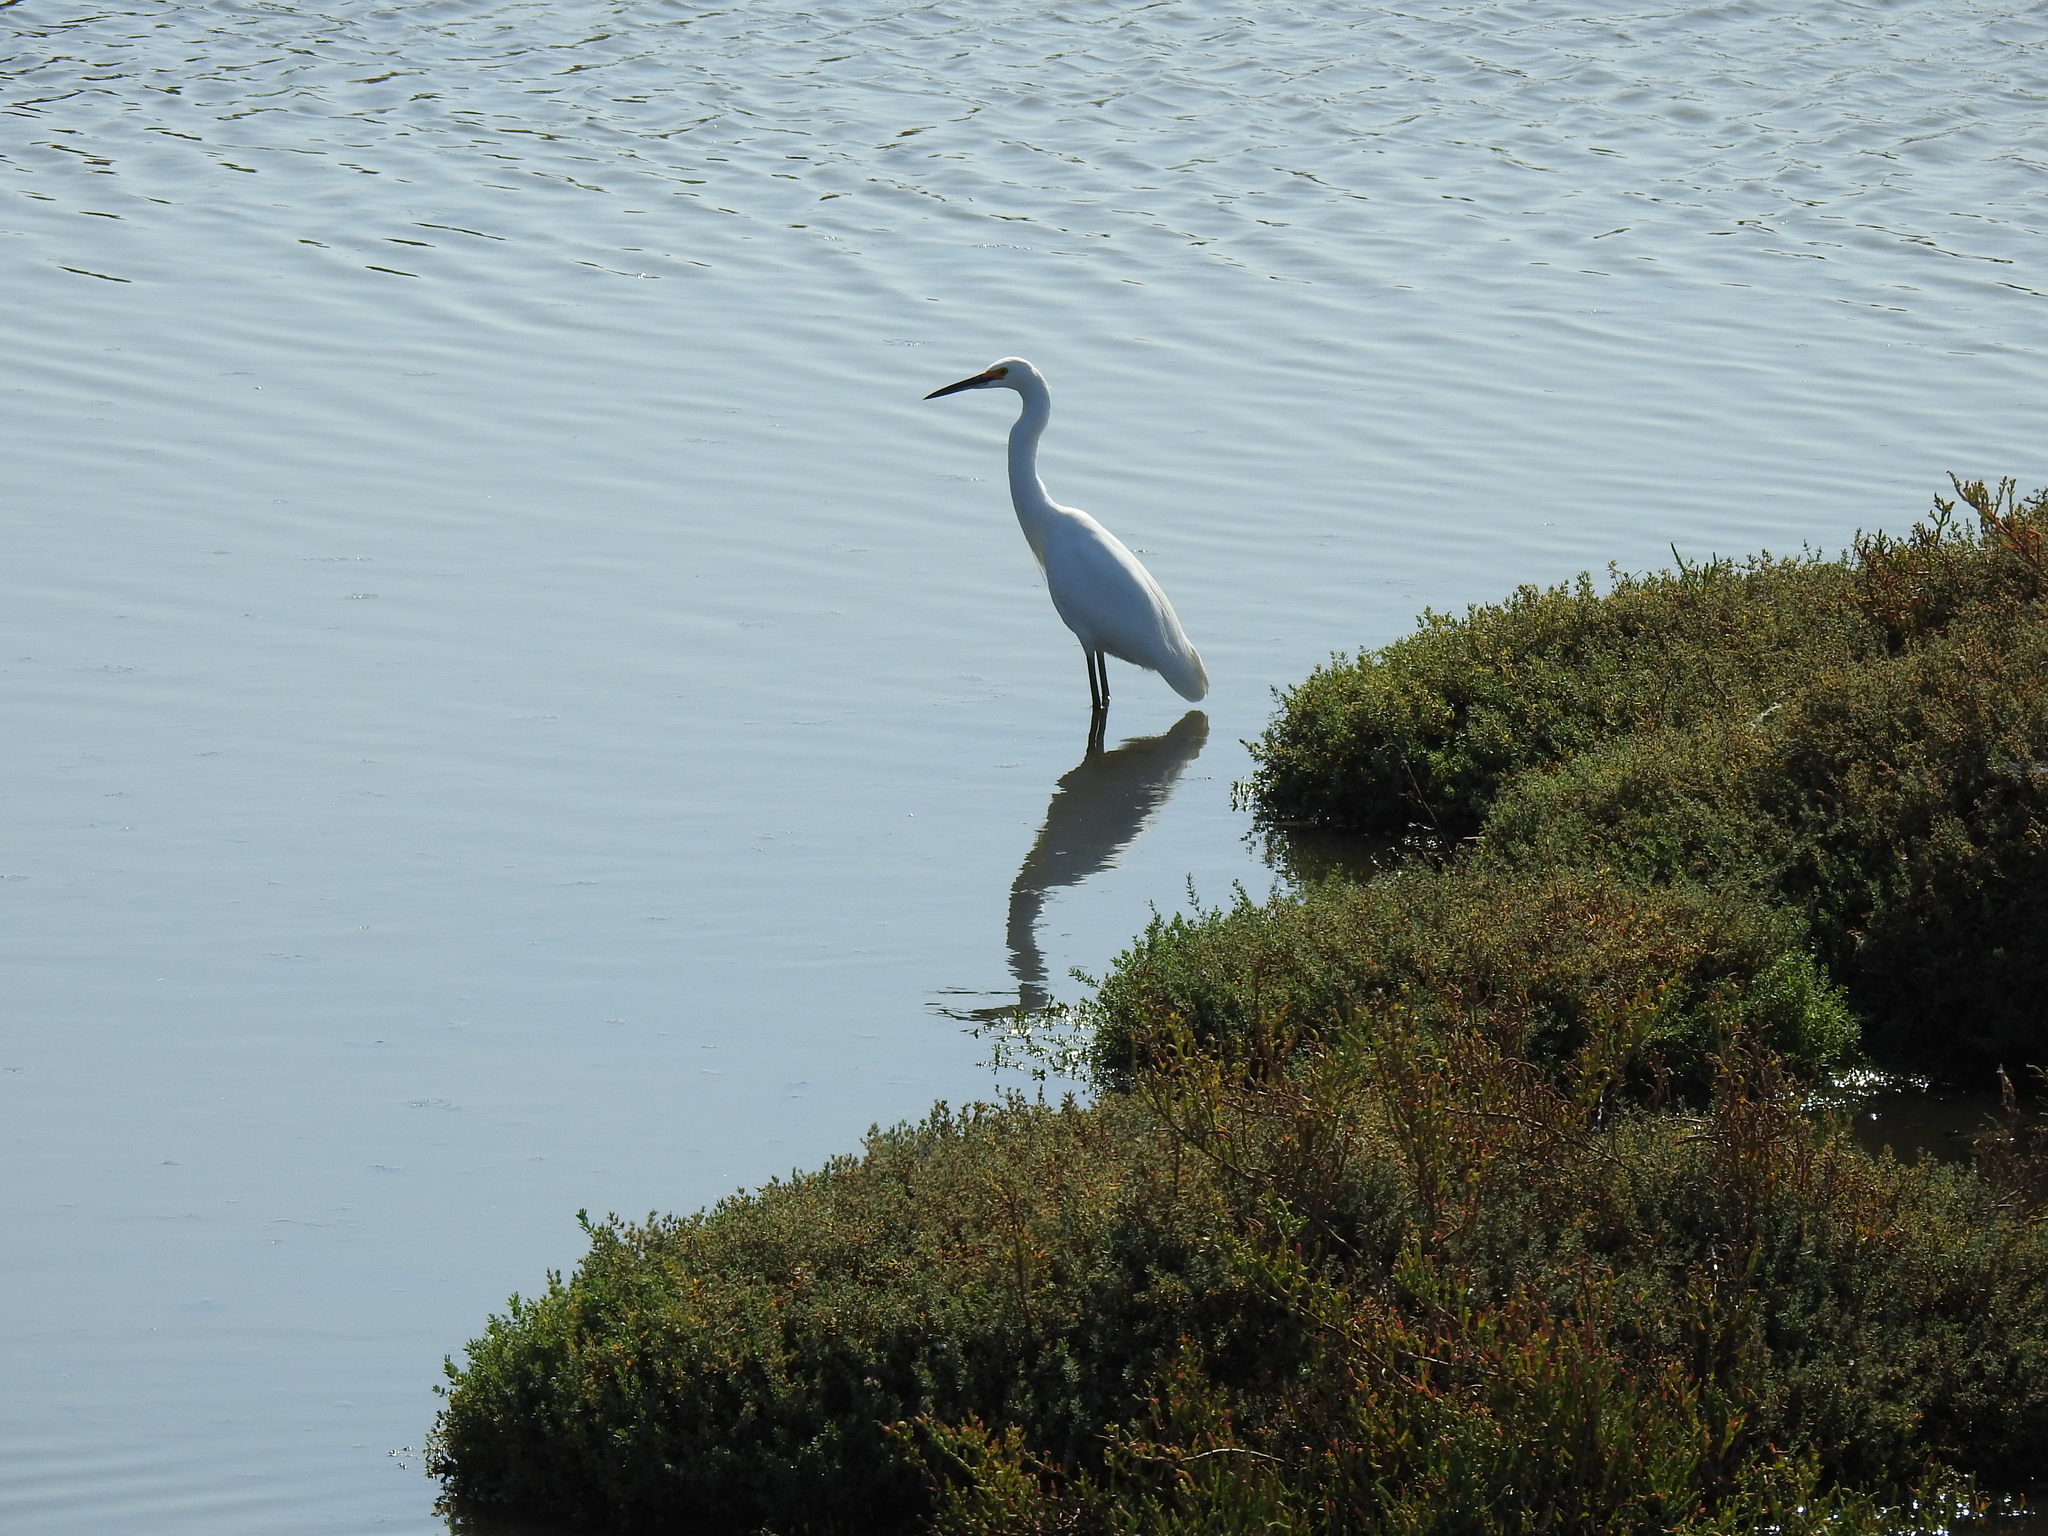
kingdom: Animalia
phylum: Chordata
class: Aves
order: Pelecaniformes
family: Ardeidae
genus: Egretta
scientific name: Egretta thula
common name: Snowy egret
